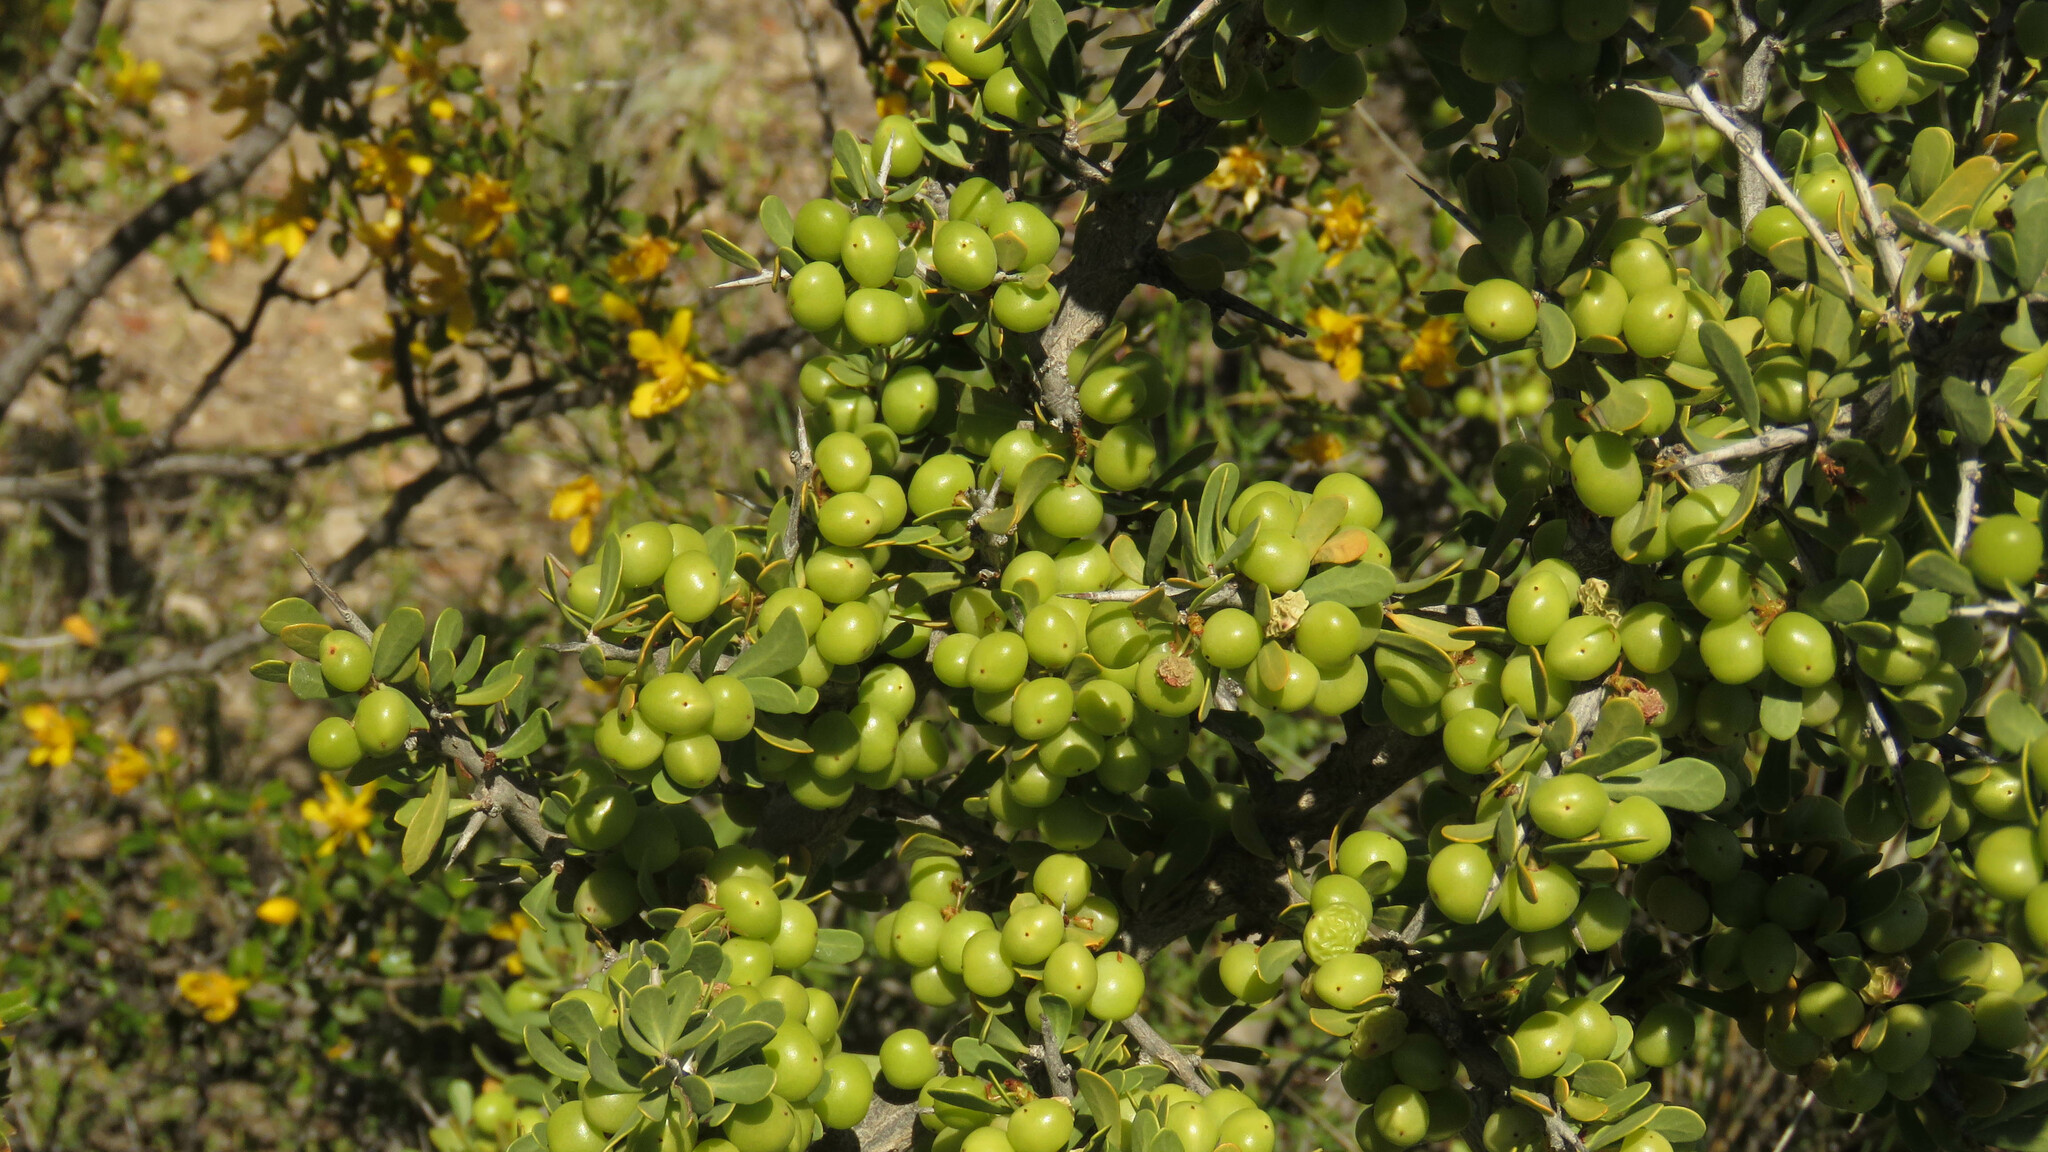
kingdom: Plantae
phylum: Tracheophyta
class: Magnoliopsida
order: Sapindales
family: Anacardiaceae
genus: Schinus
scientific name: Schinus johnstonii
